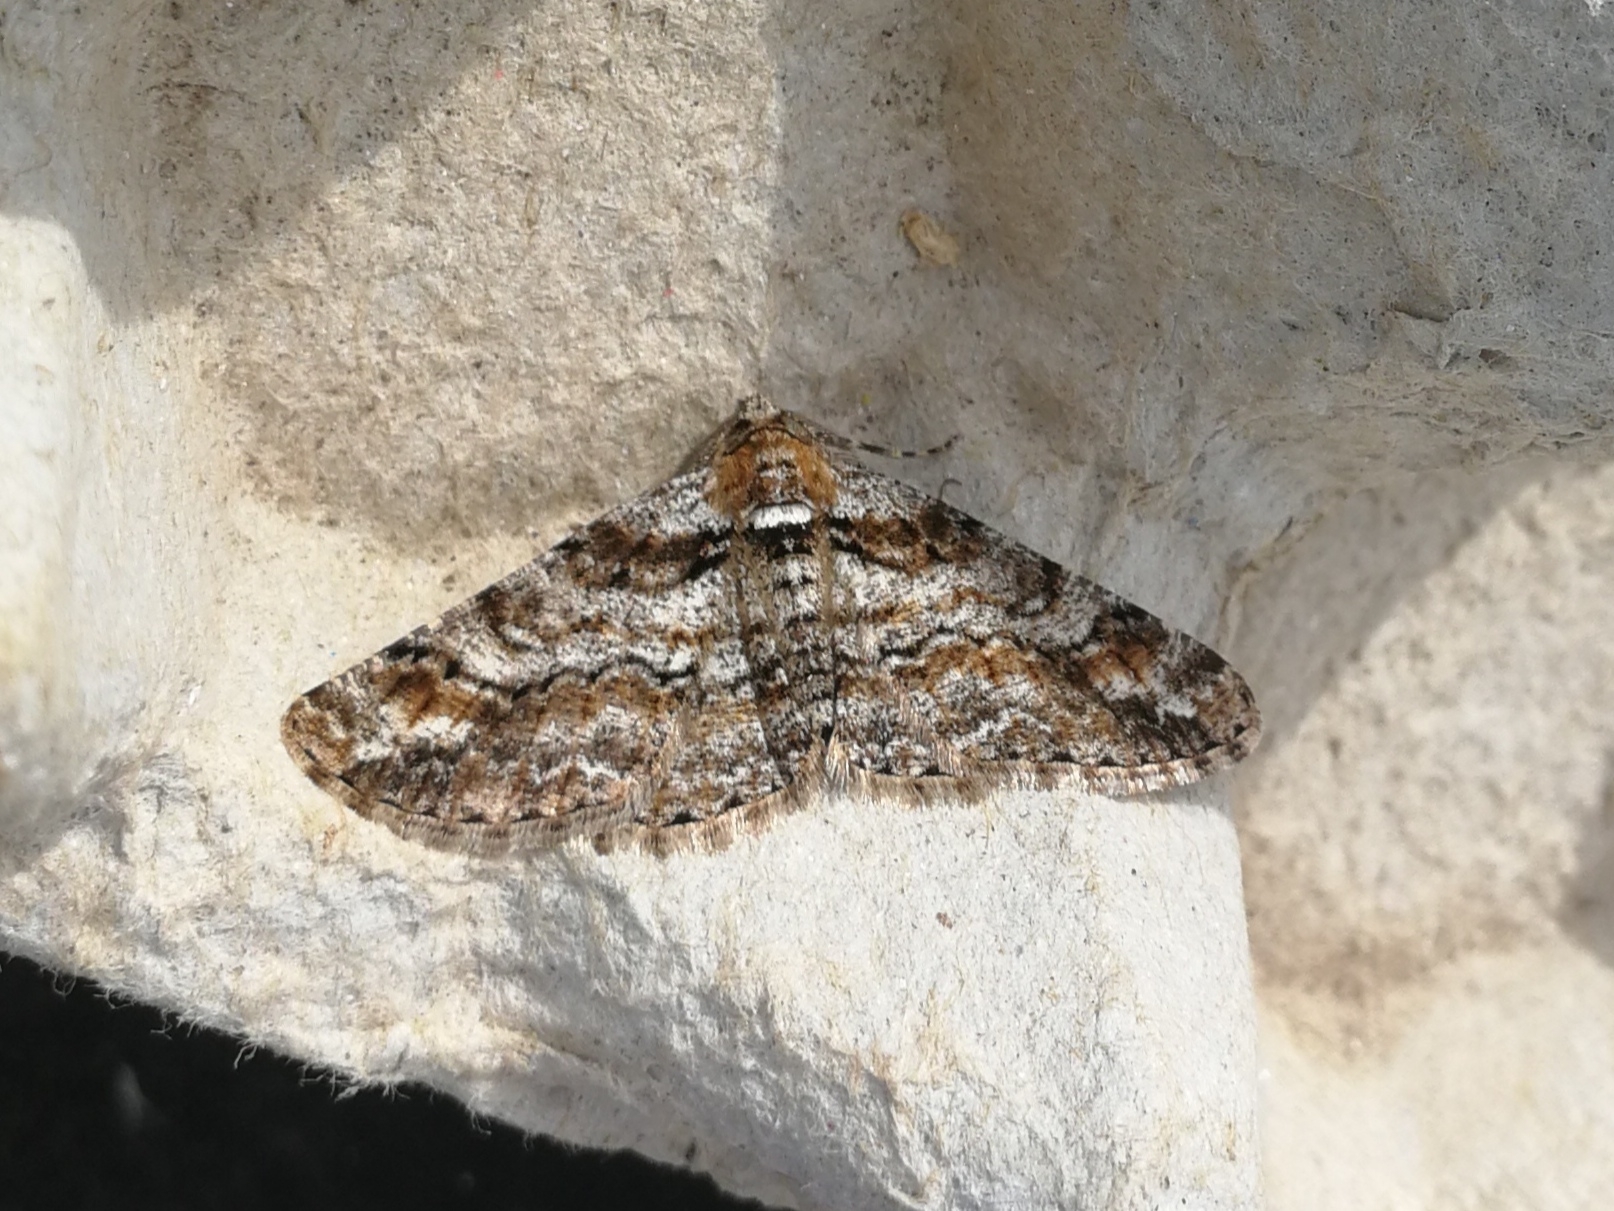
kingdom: Animalia
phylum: Arthropoda
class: Insecta
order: Lepidoptera
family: Geometridae
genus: Cleora
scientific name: Cleora cinctaria
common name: Ringed carpet
